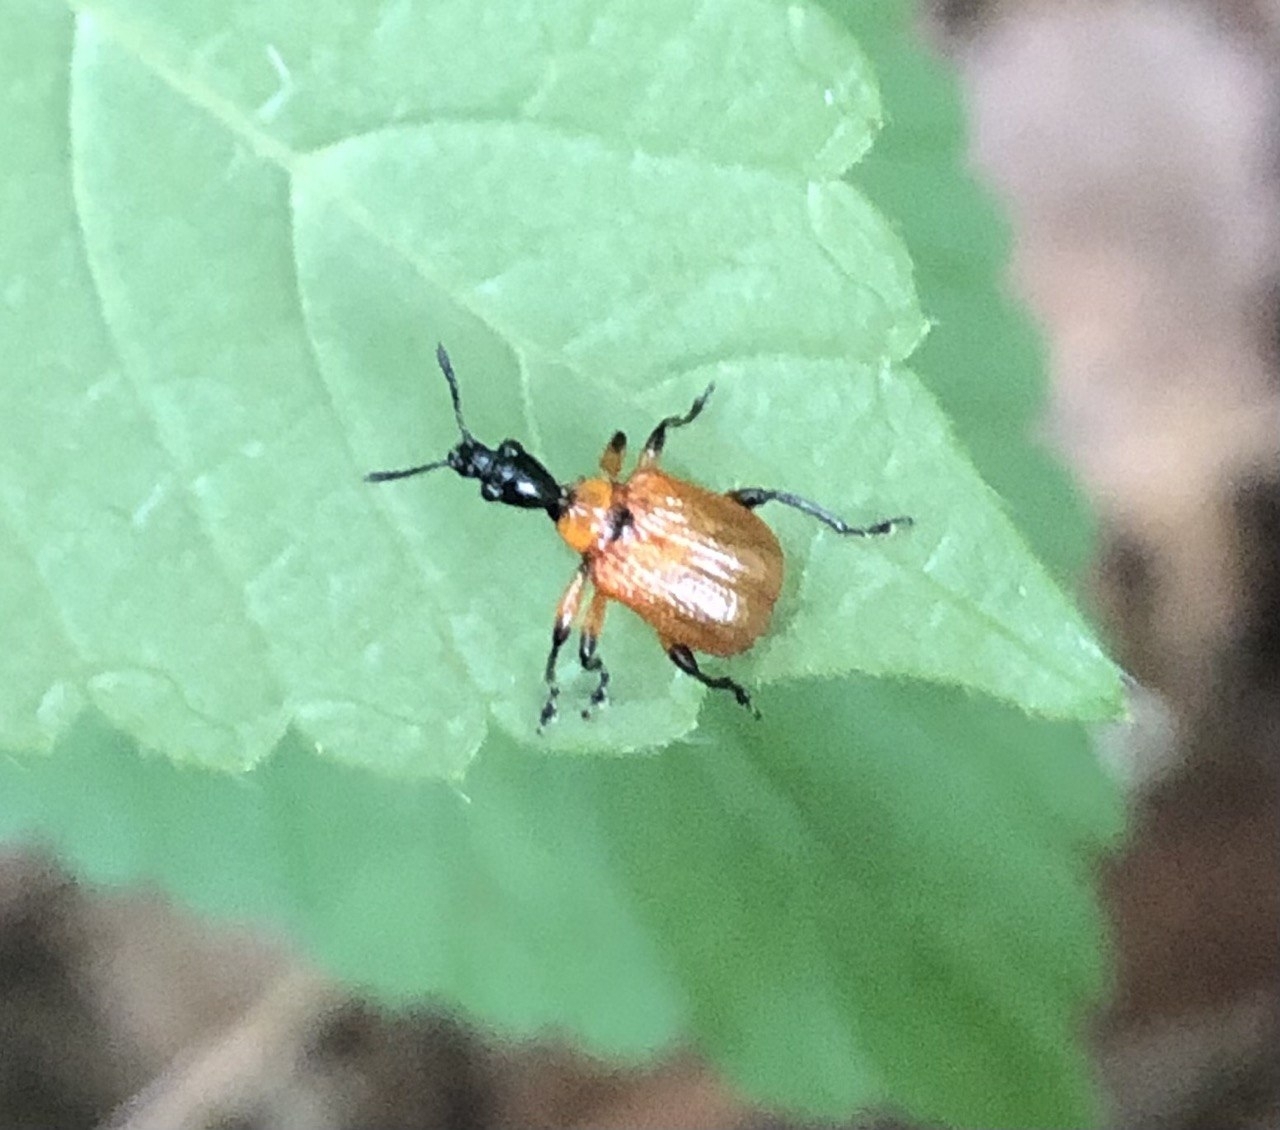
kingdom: Animalia
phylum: Arthropoda
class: Insecta
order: Coleoptera
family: Attelabidae
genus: Apoderus
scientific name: Apoderus coryli
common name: Hazel leaf roller
